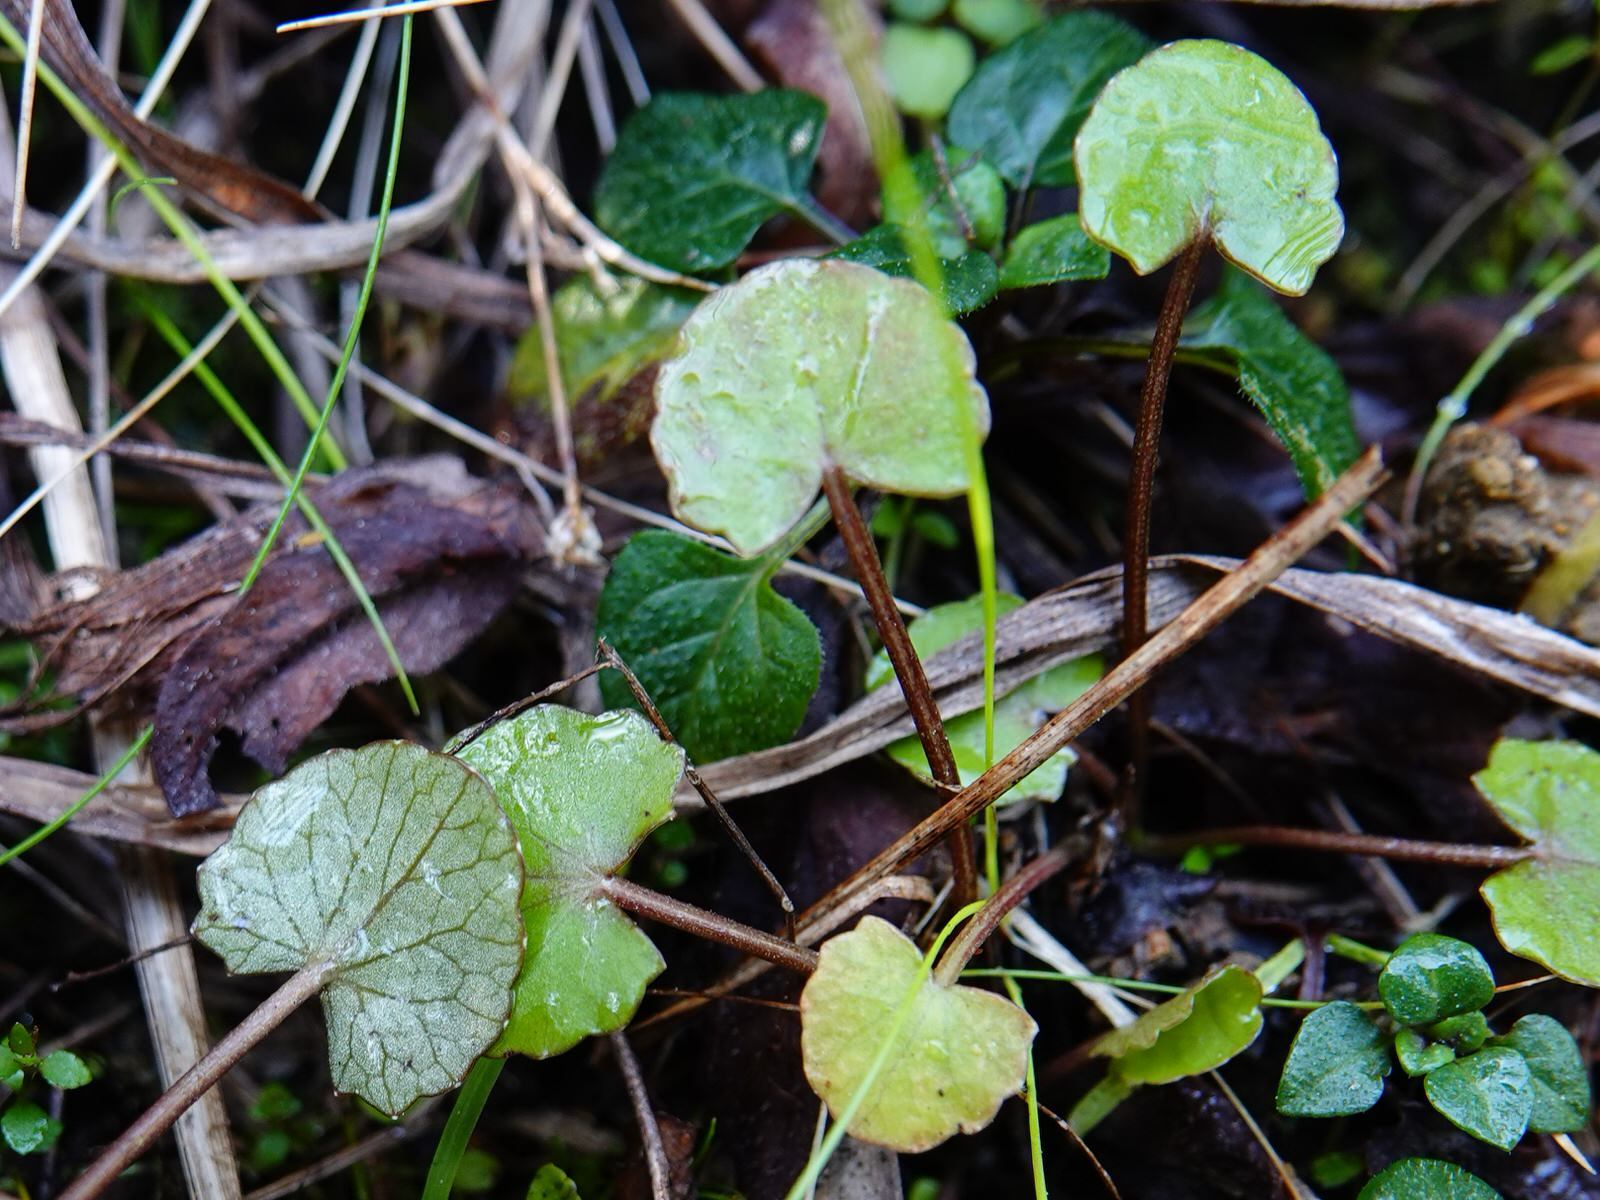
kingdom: Plantae
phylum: Tracheophyta
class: Magnoliopsida
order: Apiales
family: Apiaceae
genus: Centella
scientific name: Centella uniflora
